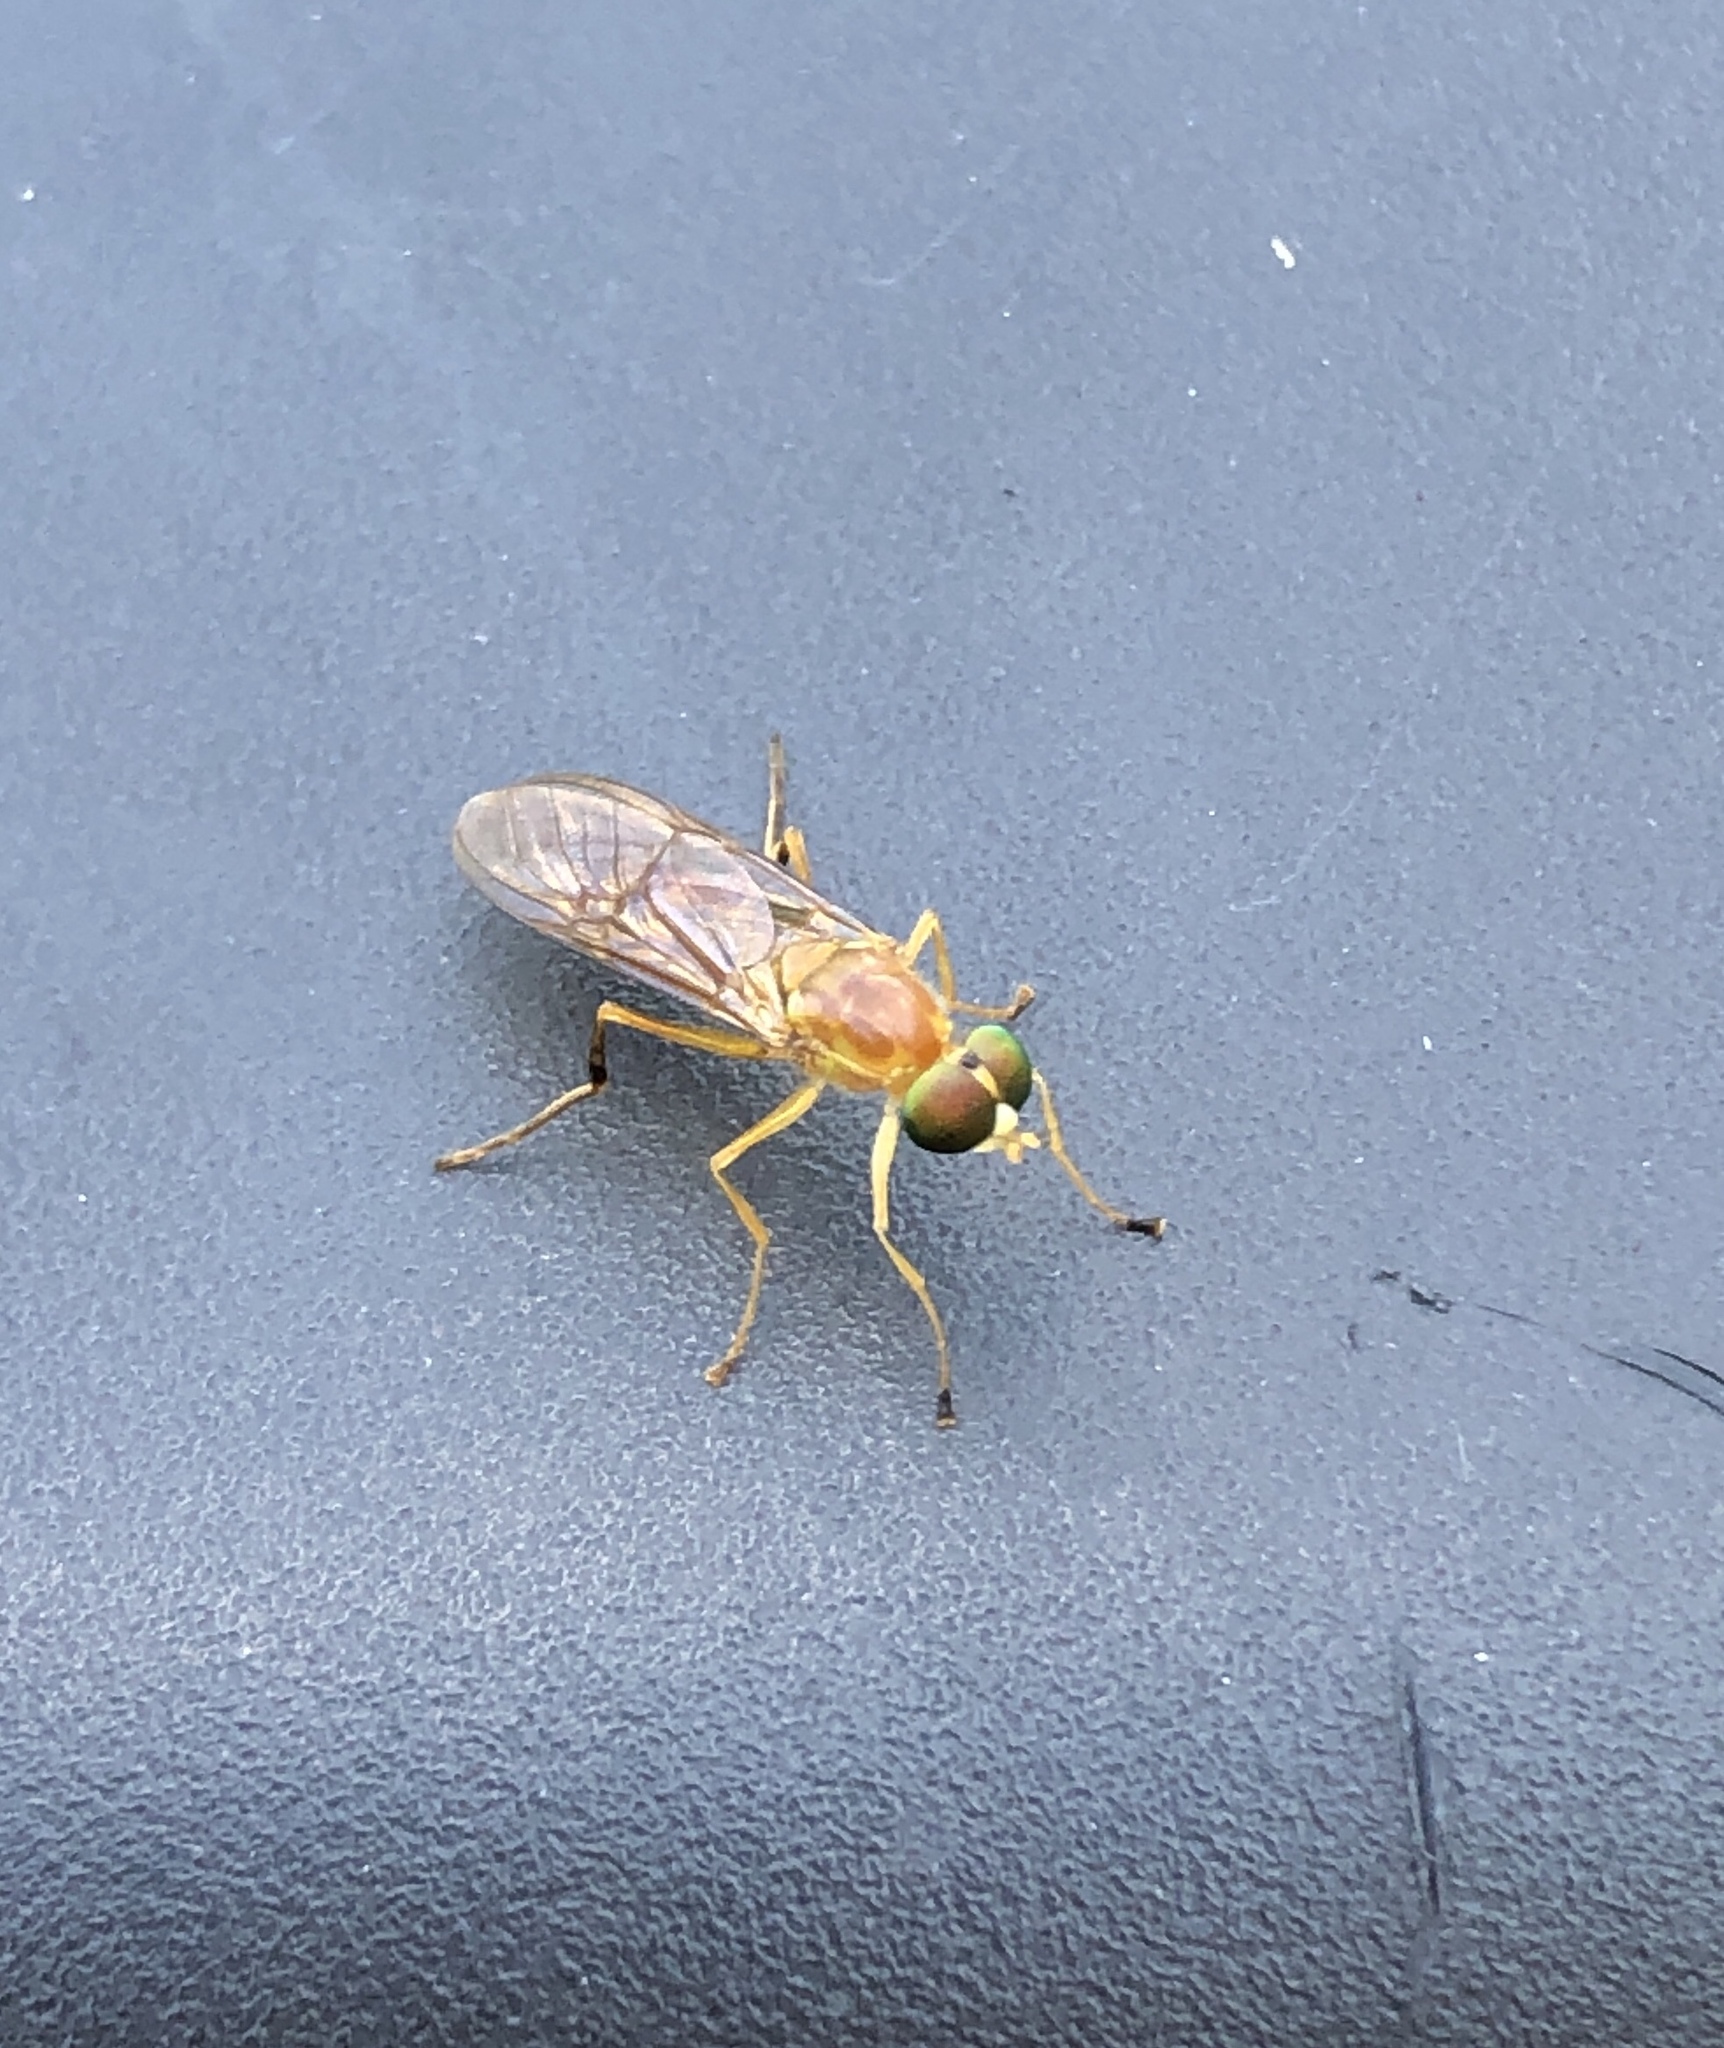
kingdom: Animalia
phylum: Arthropoda
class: Insecta
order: Diptera
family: Stratiomyidae
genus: Ptecticus
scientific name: Ptecticus trivittatus
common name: Compost fly
